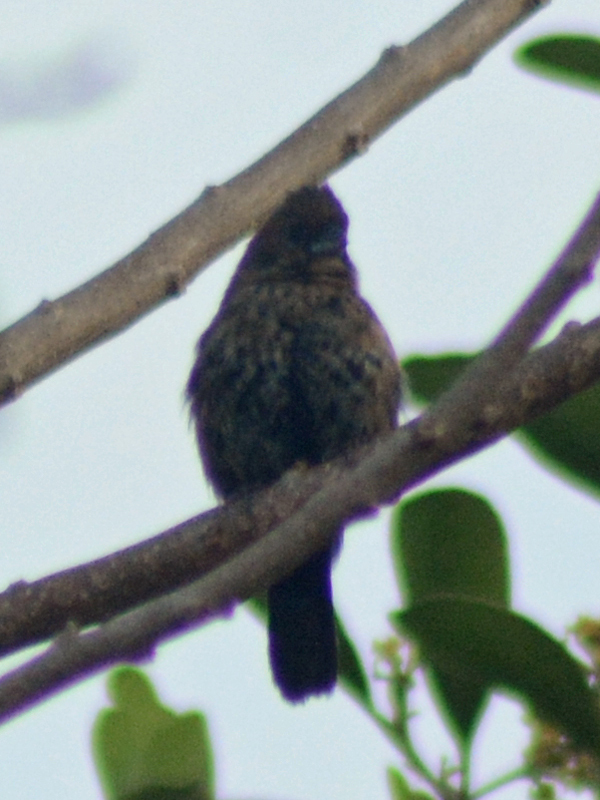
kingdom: Animalia
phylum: Chordata
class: Aves
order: Passeriformes
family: Thraupidae
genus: Volatinia
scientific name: Volatinia jacarina
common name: Blue-black grassquit
